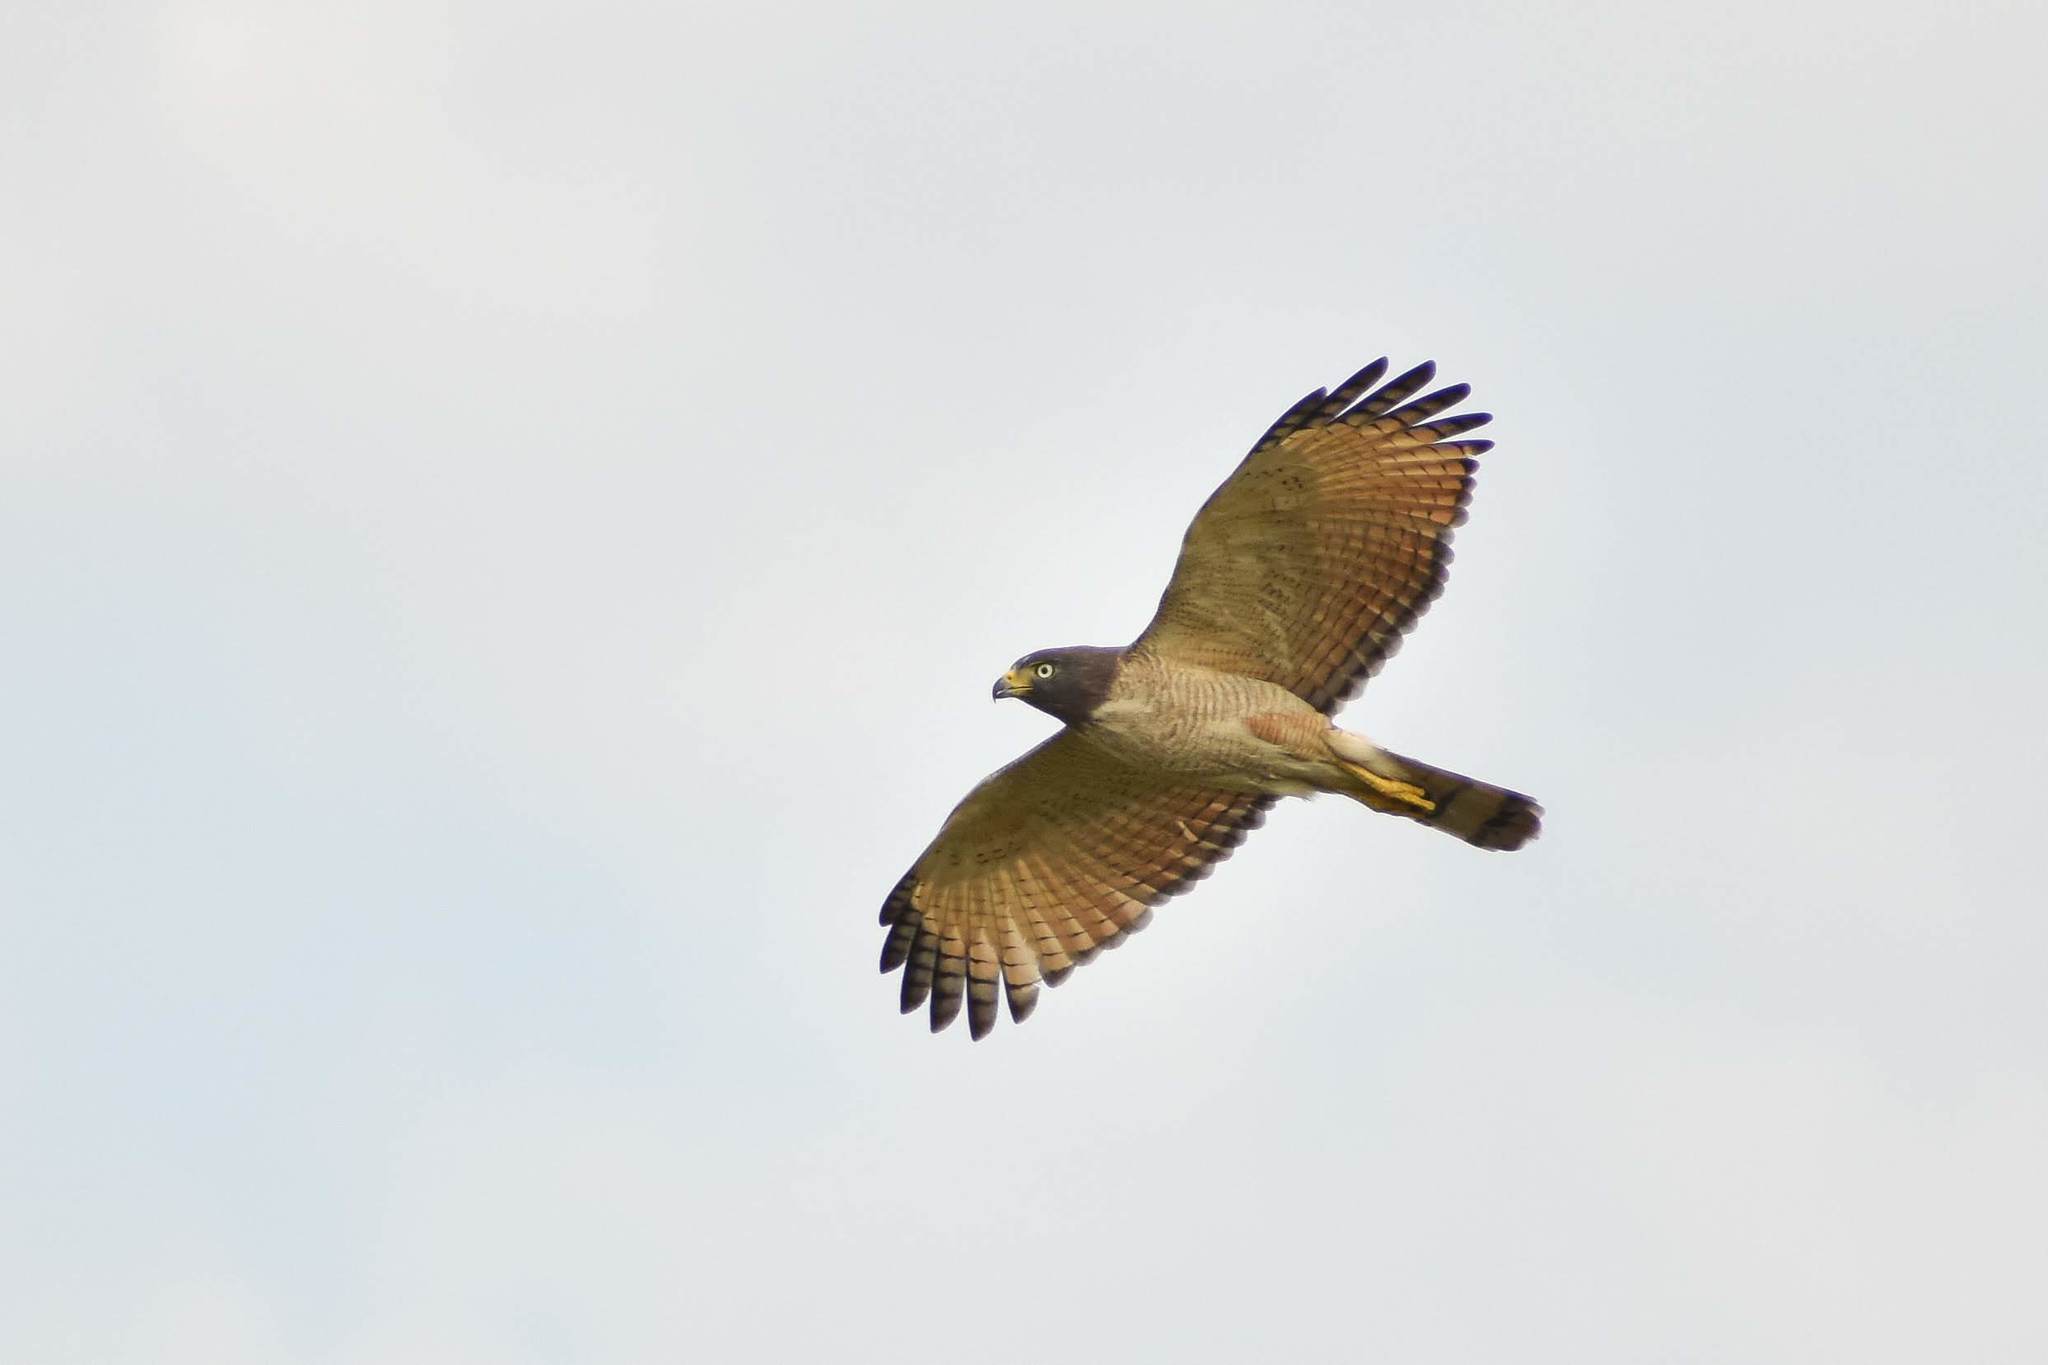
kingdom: Animalia
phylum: Chordata
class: Aves
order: Accipitriformes
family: Accipitridae
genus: Rupornis
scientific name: Rupornis magnirostris
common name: Roadside hawk
